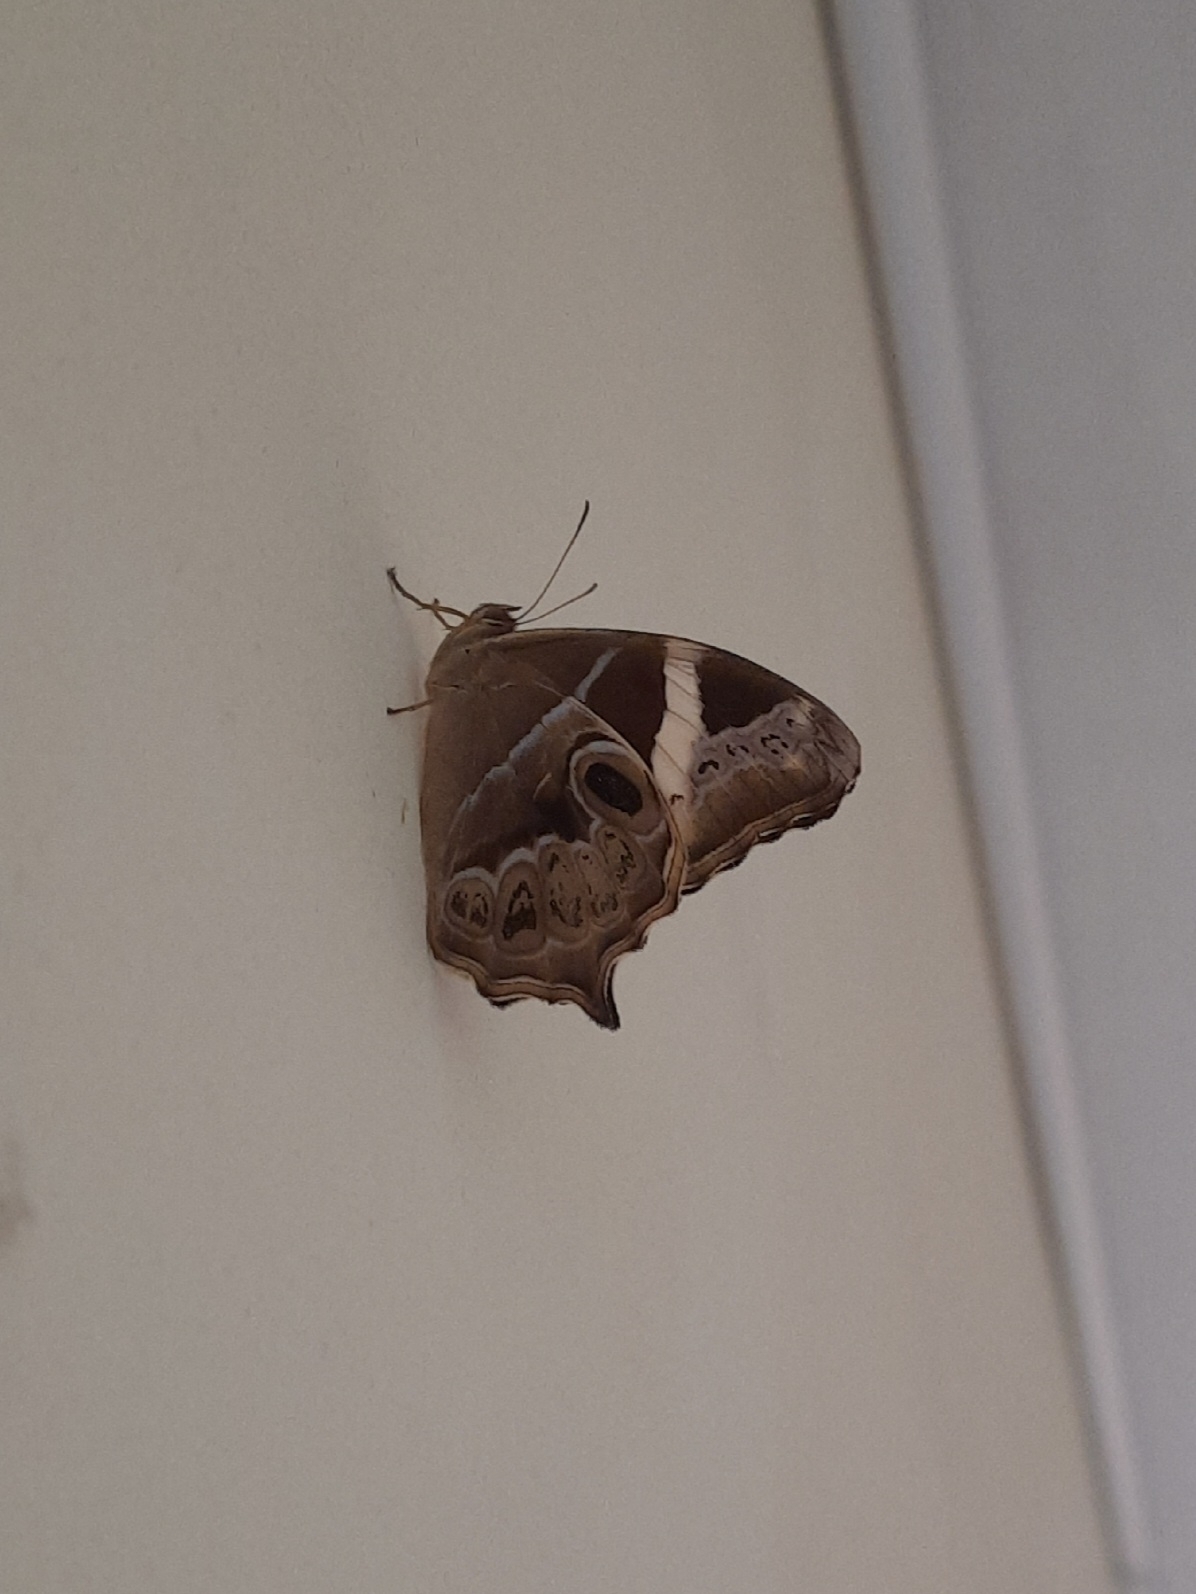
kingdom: Animalia
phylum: Arthropoda
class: Insecta
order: Lepidoptera
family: Nymphalidae
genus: Lethe
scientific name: Lethe europa
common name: Bamboo treebrown
